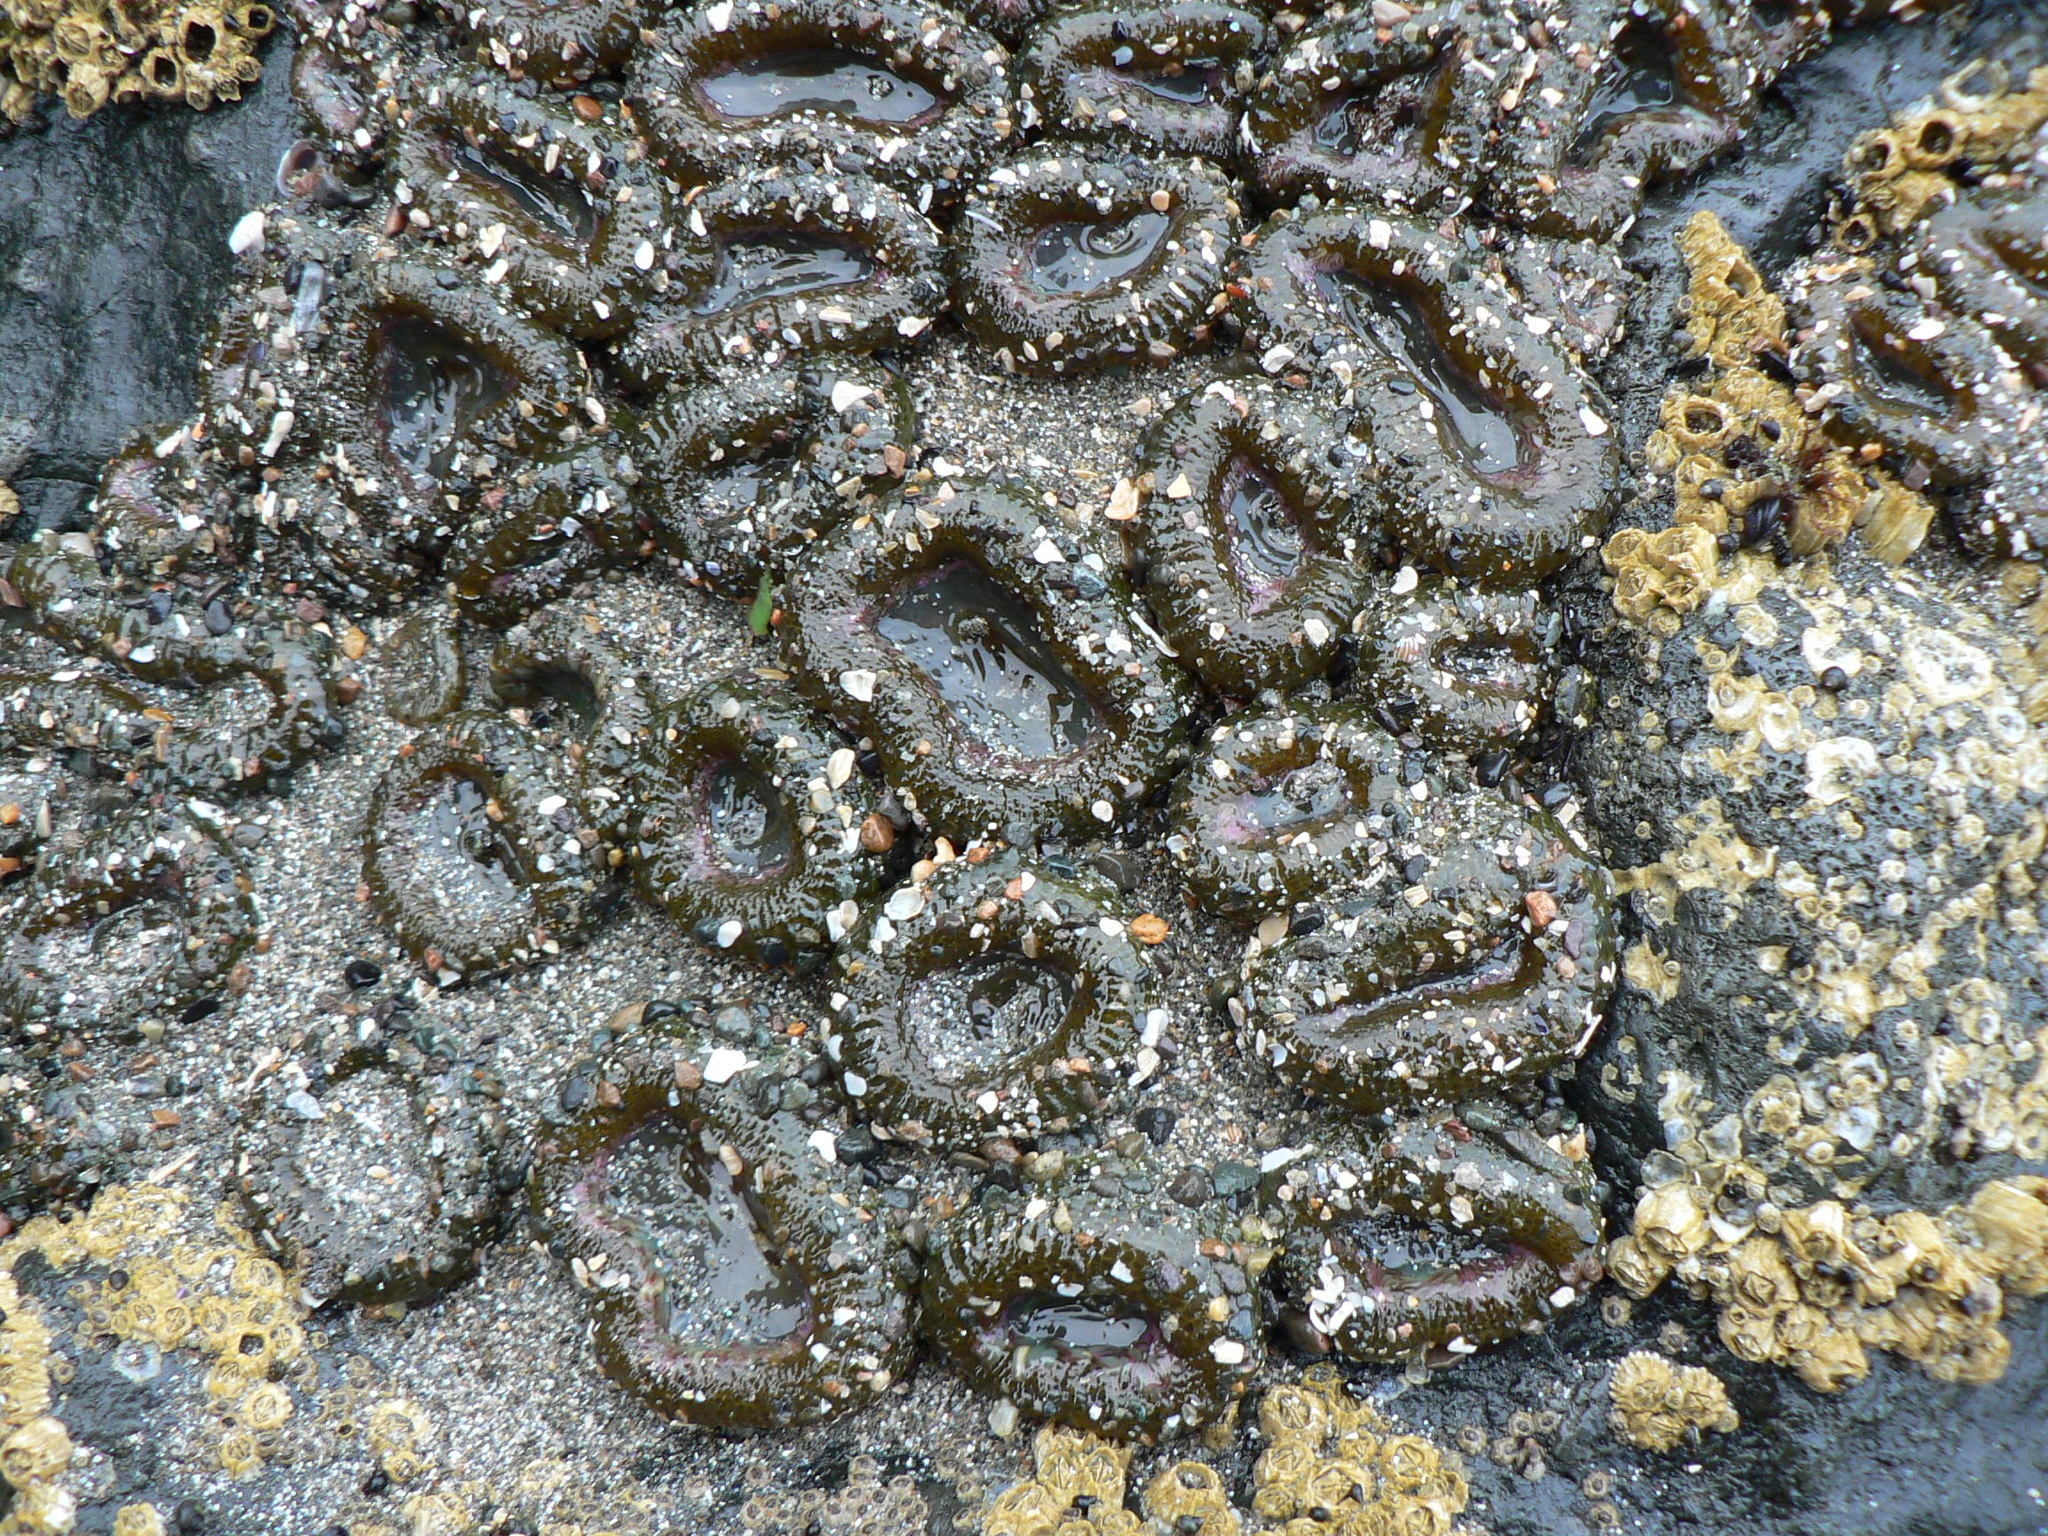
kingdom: Animalia
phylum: Cnidaria
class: Anthozoa
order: Actiniaria
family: Actiniidae
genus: Anthopleura
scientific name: Anthopleura elegantissima
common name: Clonal anemone
